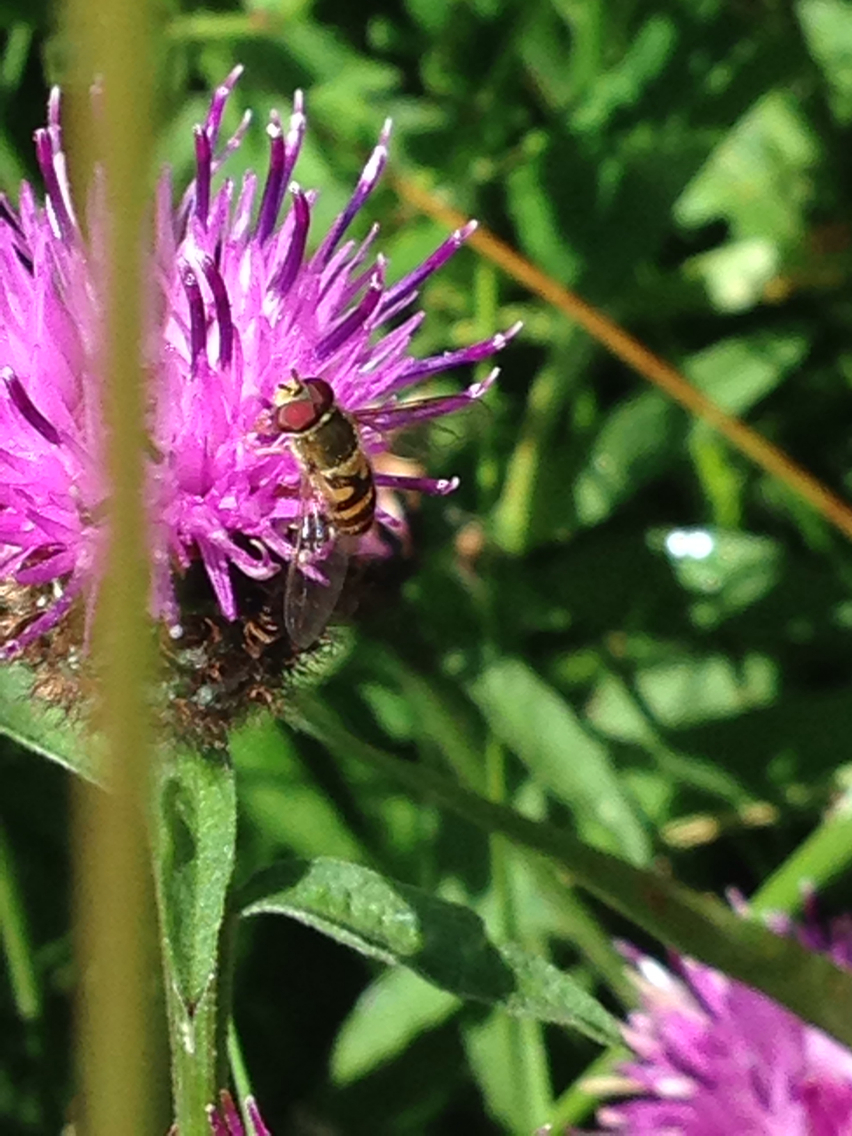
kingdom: Animalia
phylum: Arthropoda
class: Insecta
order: Diptera
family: Syrphidae
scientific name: Syrphidae
